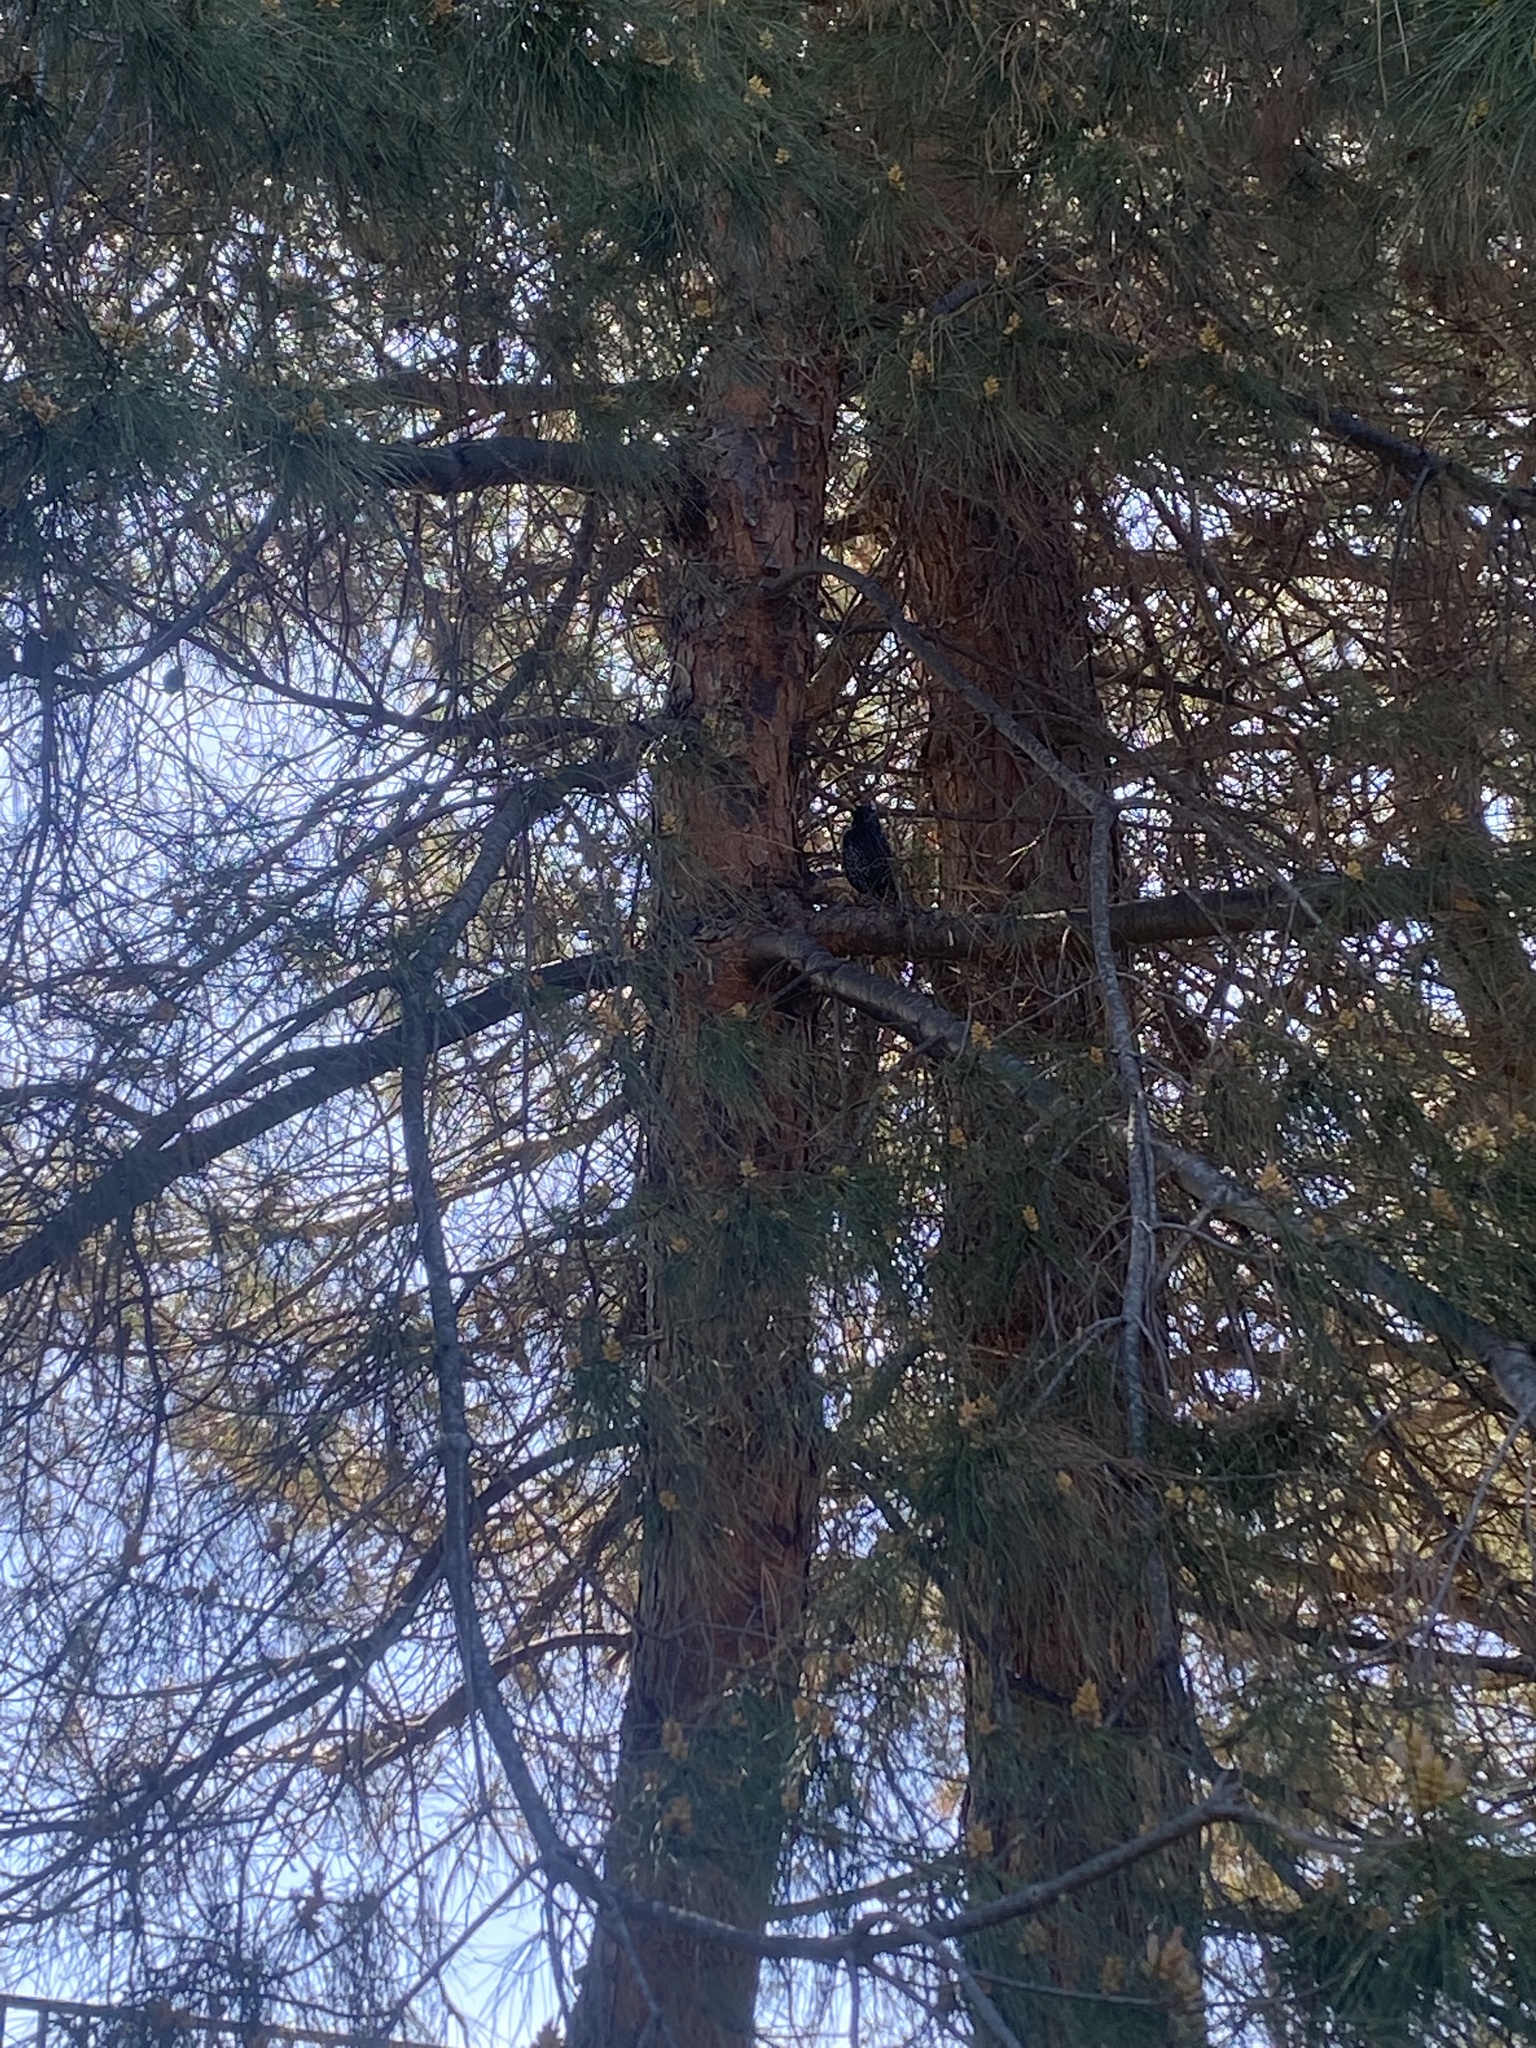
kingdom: Animalia
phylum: Chordata
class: Aves
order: Passeriformes
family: Sturnidae
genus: Sturnus
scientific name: Sturnus vulgaris
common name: Common starling
